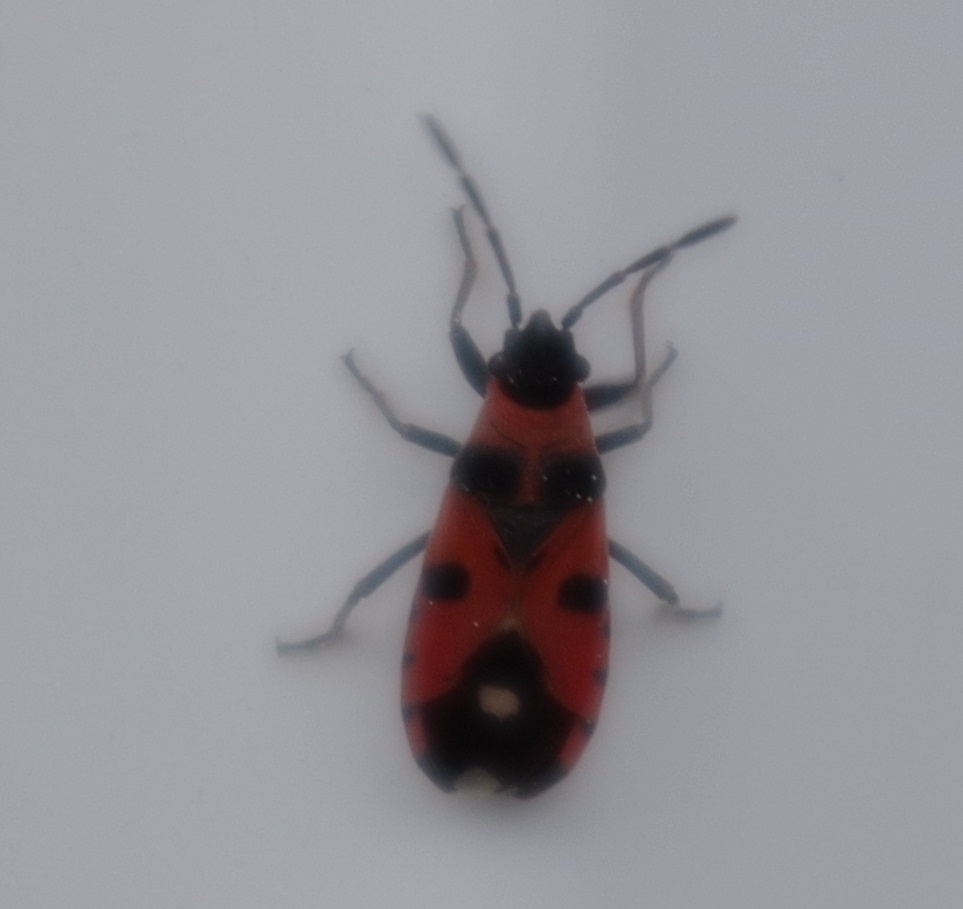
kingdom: Animalia
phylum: Arthropoda
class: Insecta
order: Hemiptera
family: Lygaeidae
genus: Horvathiolus
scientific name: Horvathiolus superbus
